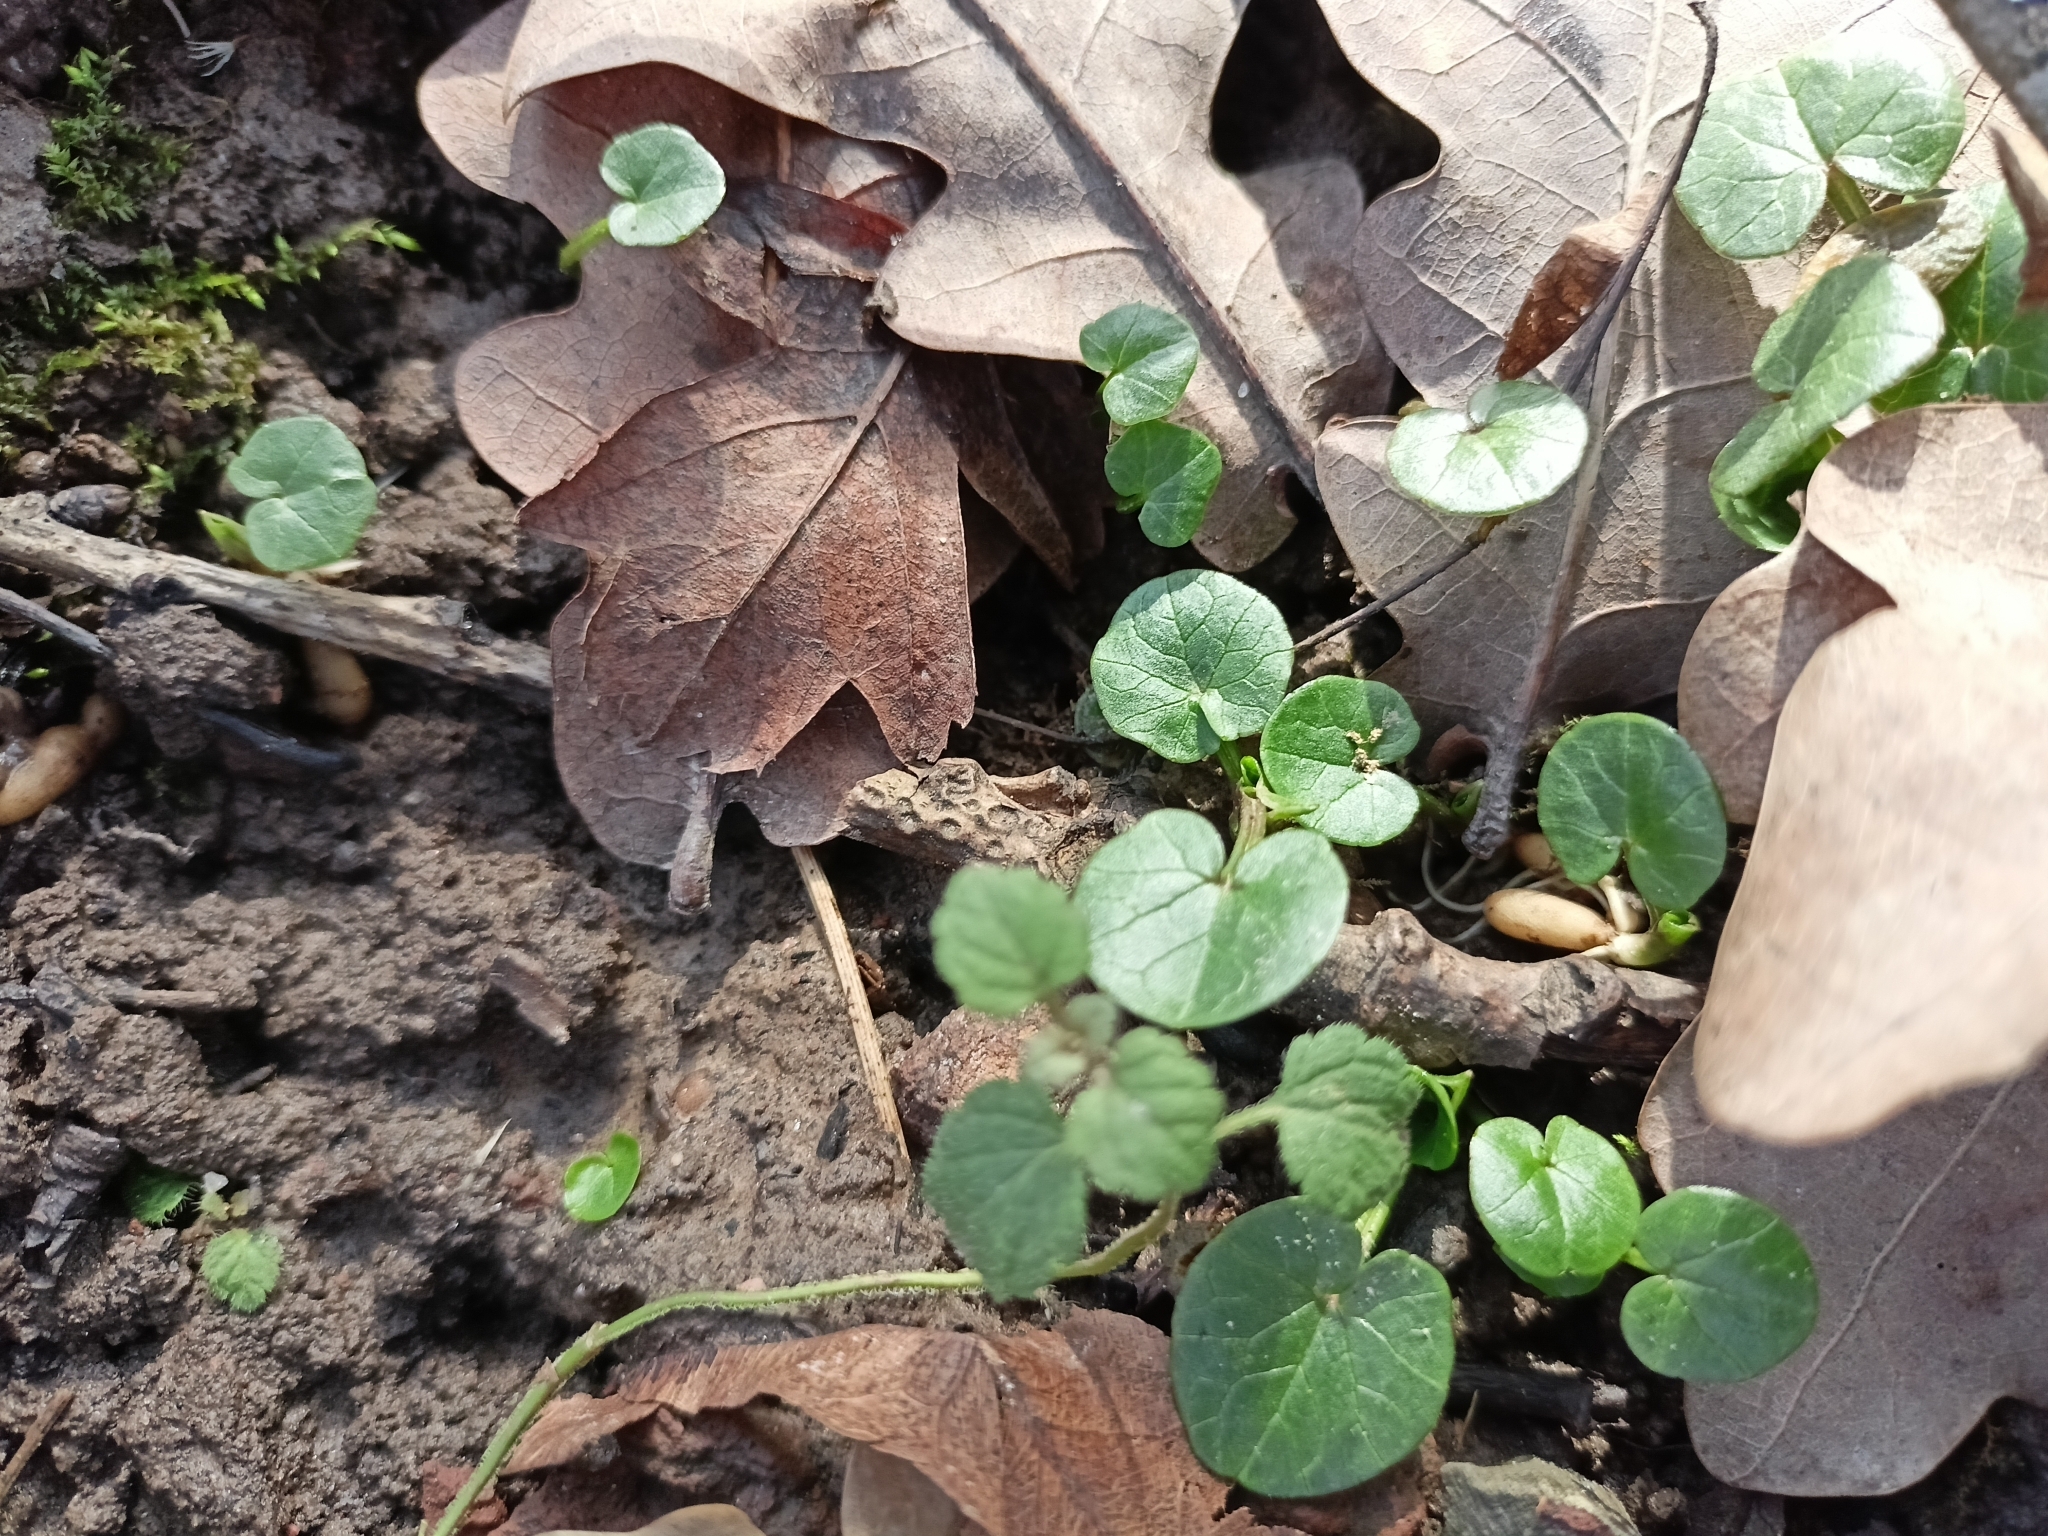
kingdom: Plantae
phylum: Tracheophyta
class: Magnoliopsida
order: Ranunculales
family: Ranunculaceae
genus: Ficaria
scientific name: Ficaria verna
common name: Lesser celandine
